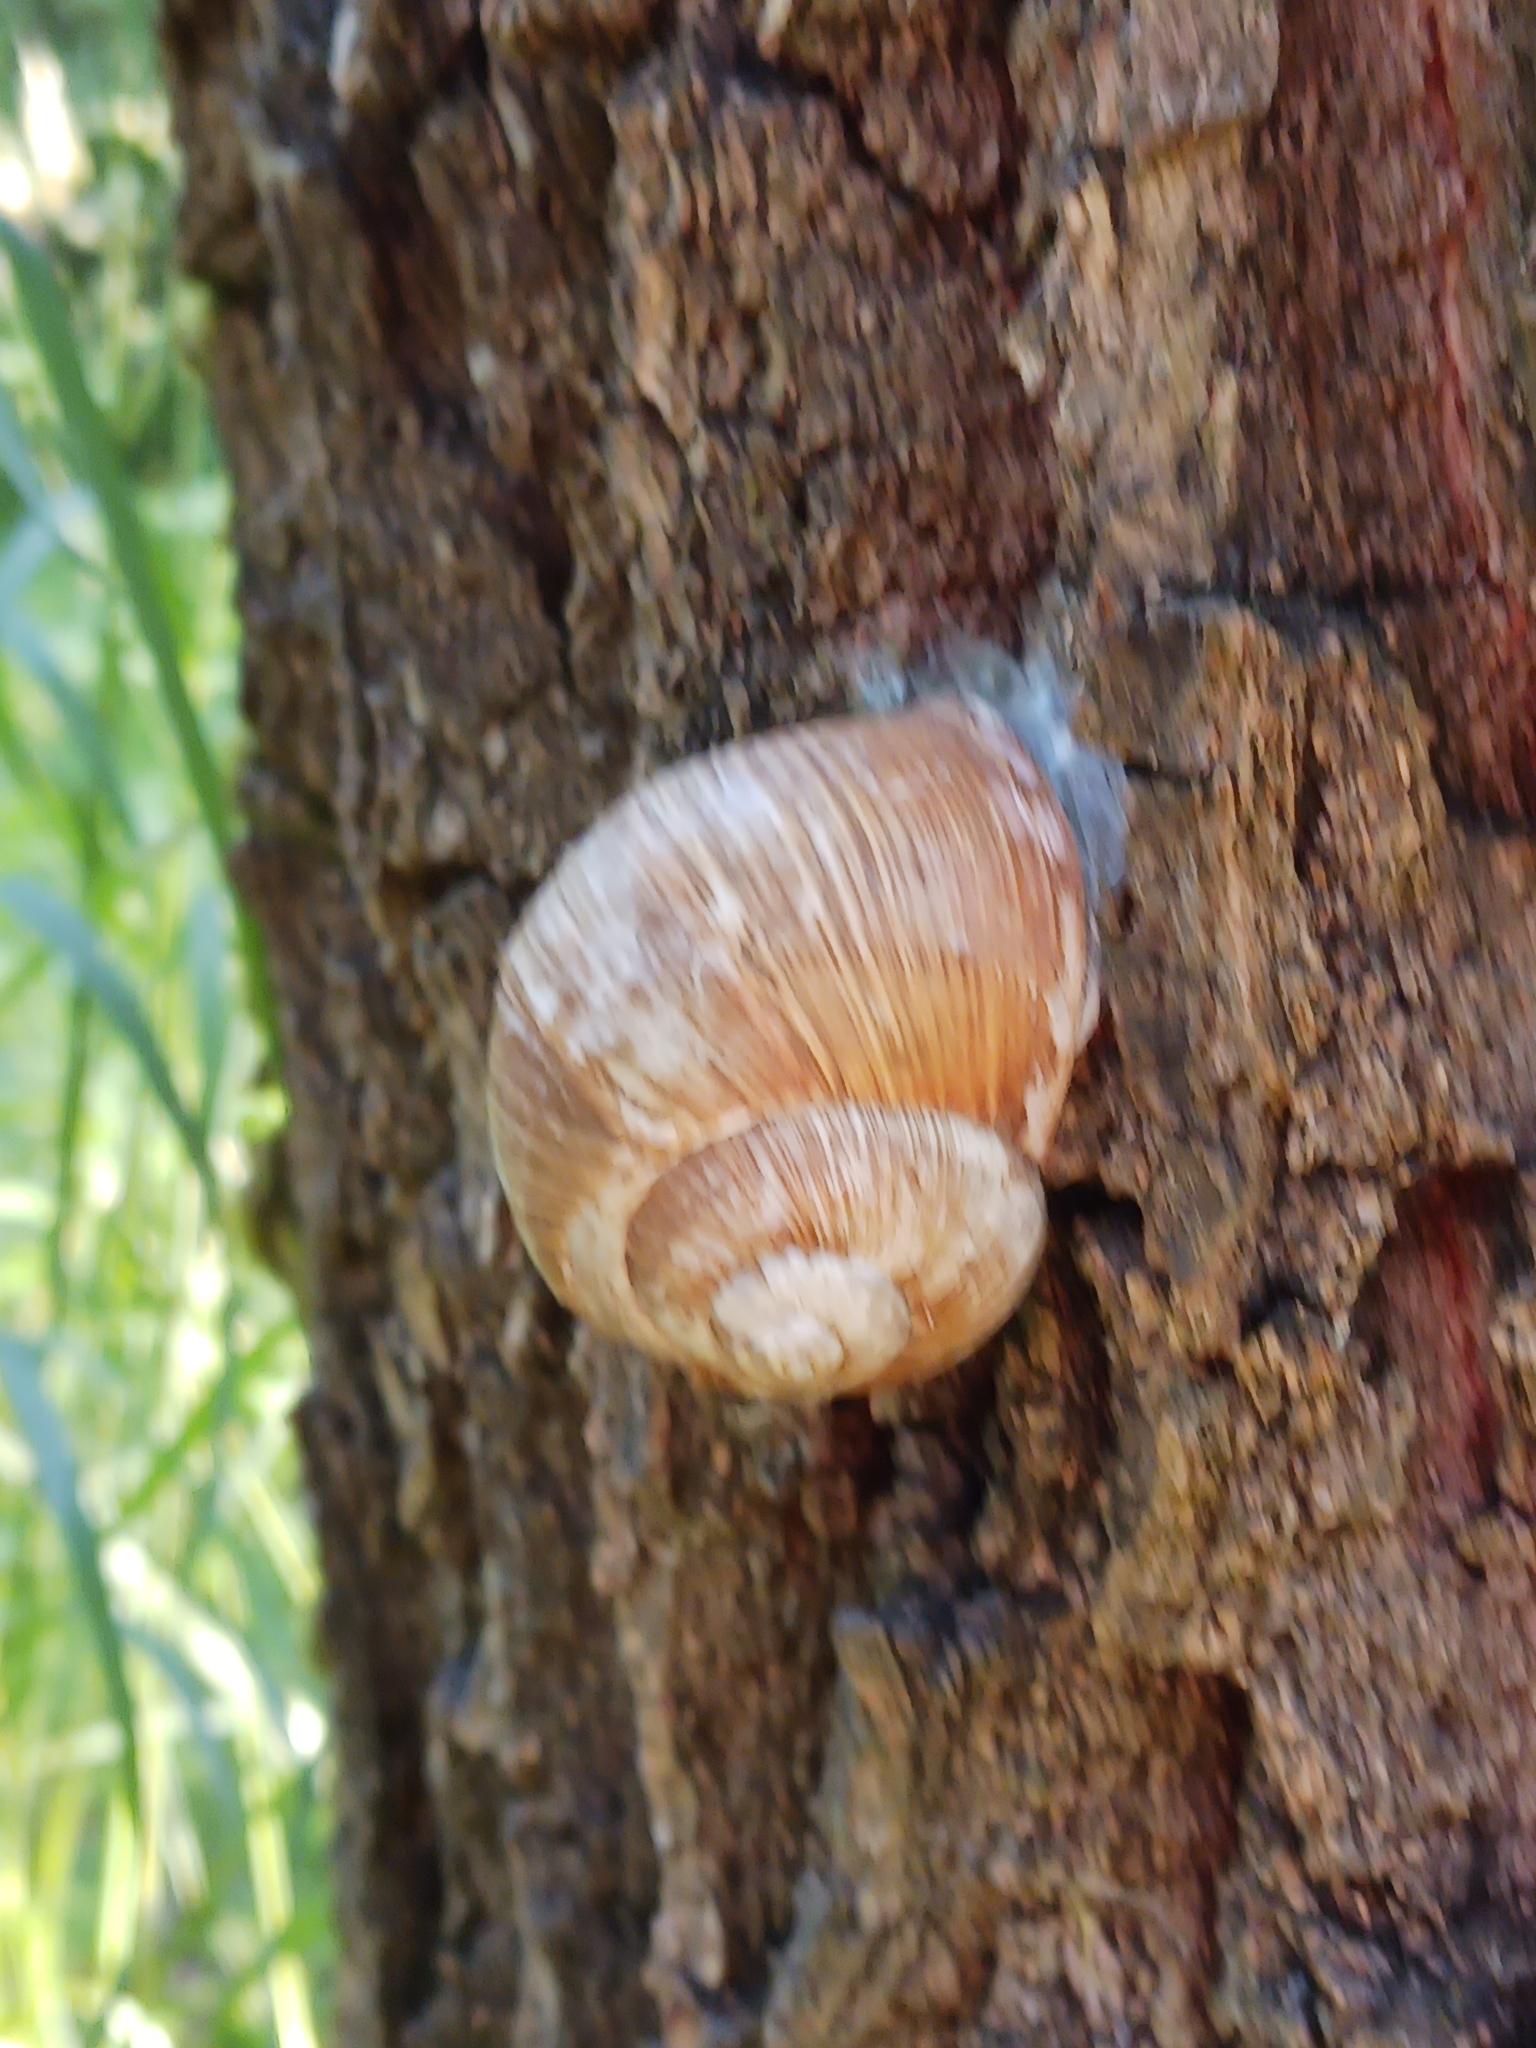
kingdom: Animalia
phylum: Mollusca
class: Gastropoda
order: Stylommatophora
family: Helicidae
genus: Helix
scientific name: Helix pomatia
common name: Roman snail
